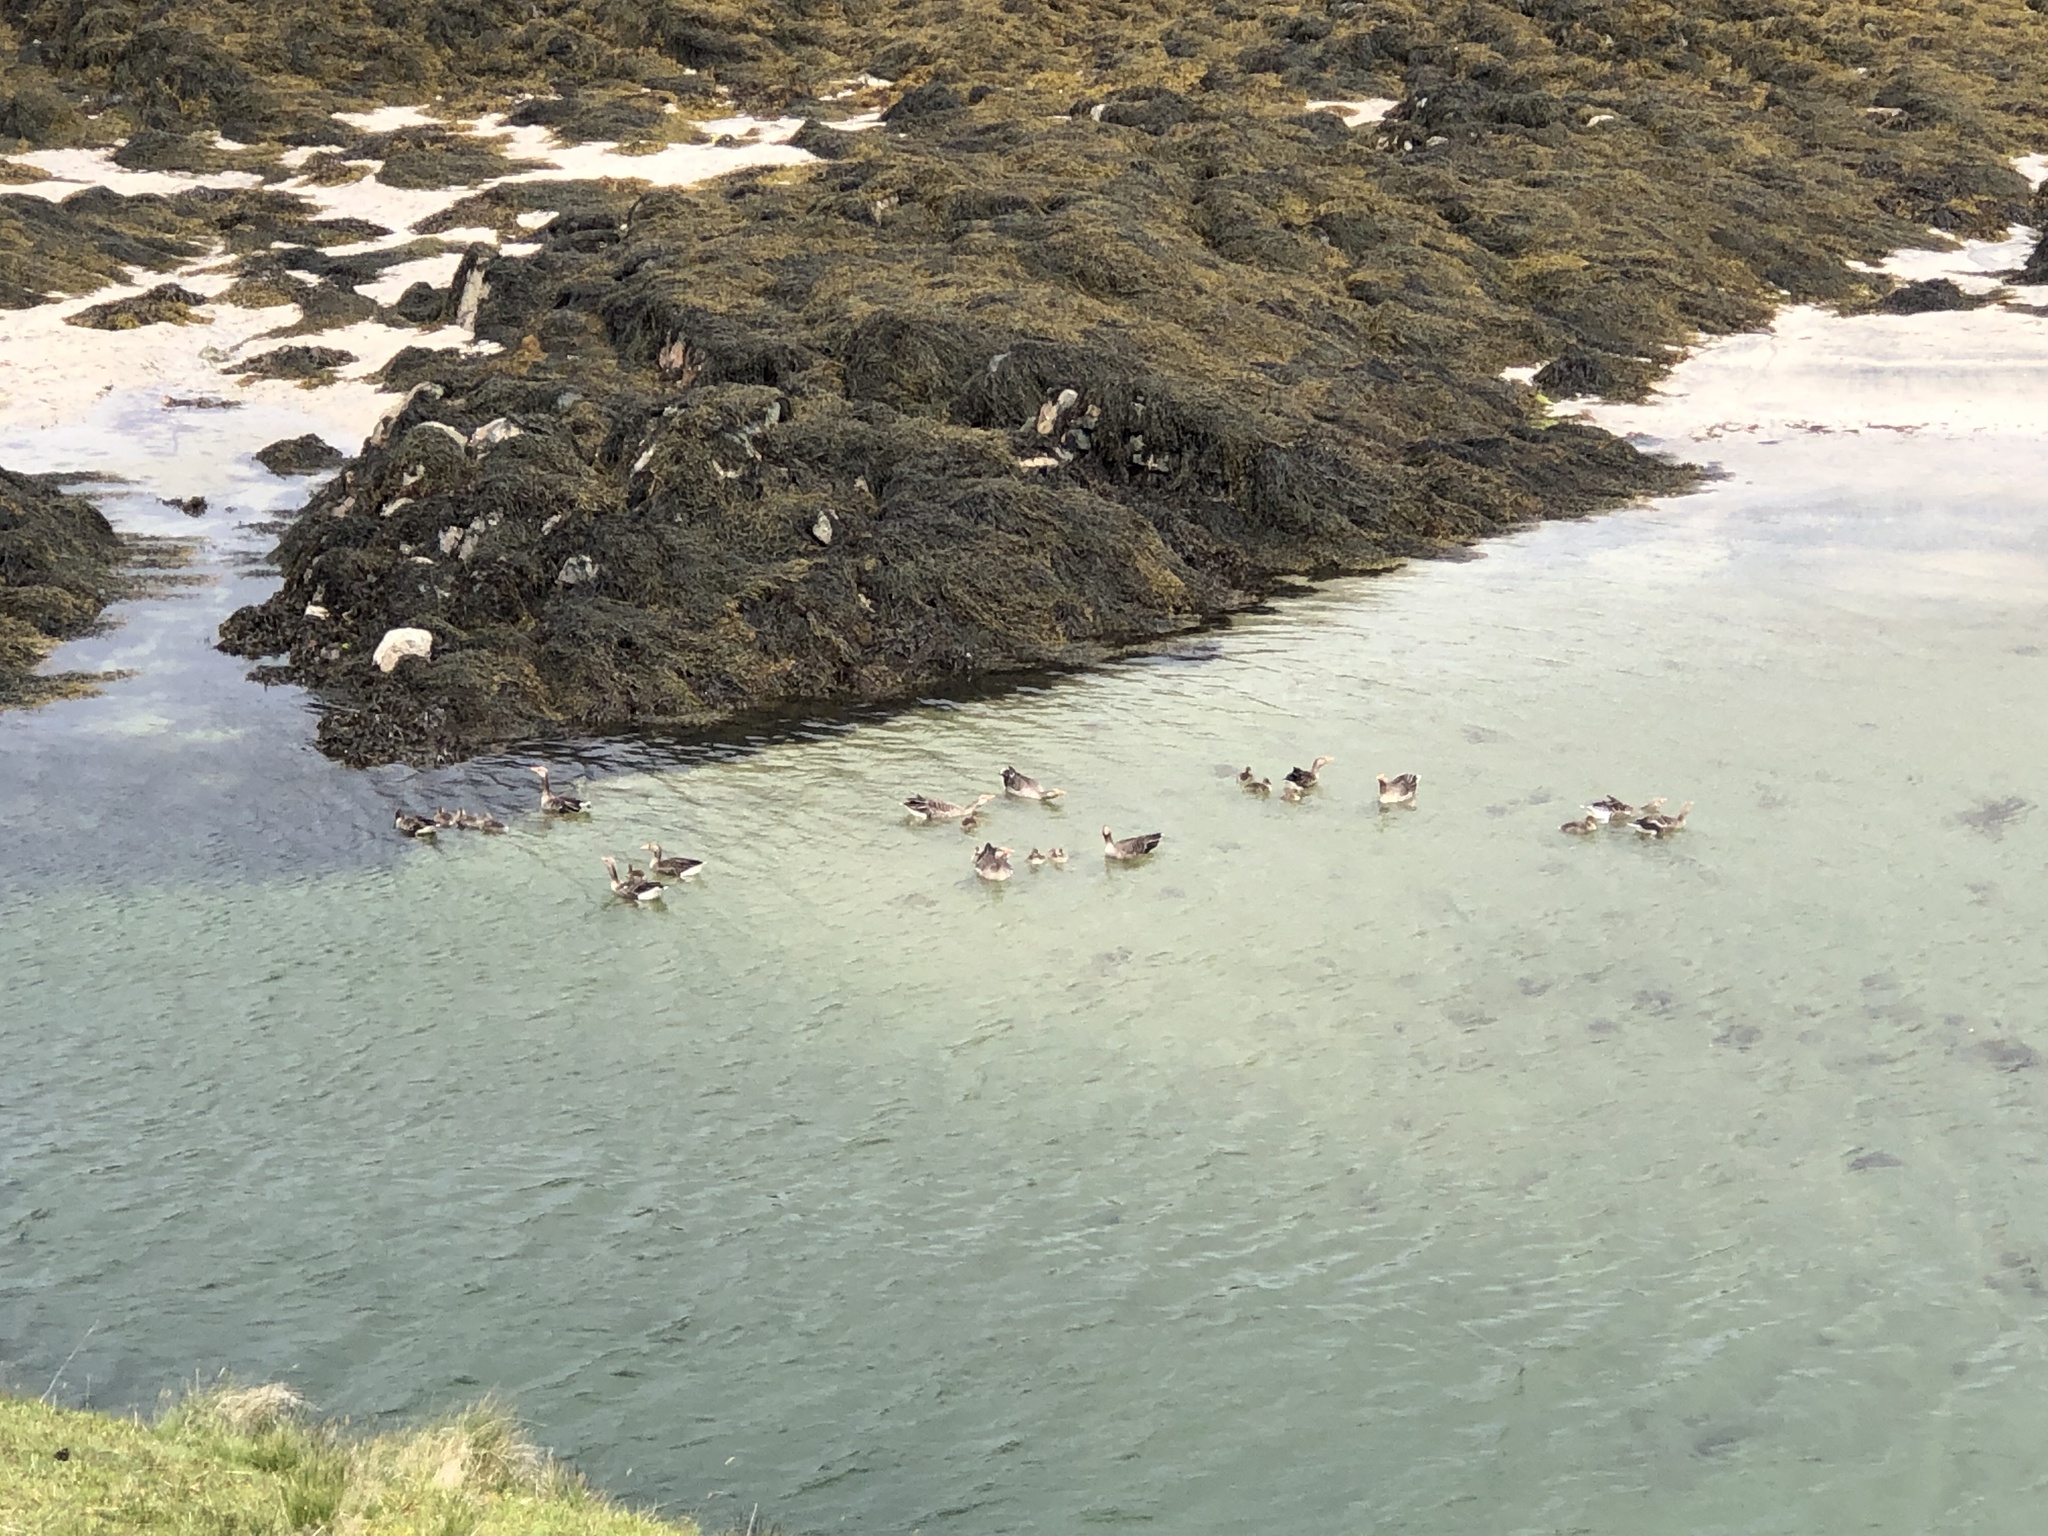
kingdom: Animalia
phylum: Chordata
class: Aves
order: Anseriformes
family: Anatidae
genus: Anser
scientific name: Anser anser
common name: Greylag goose
